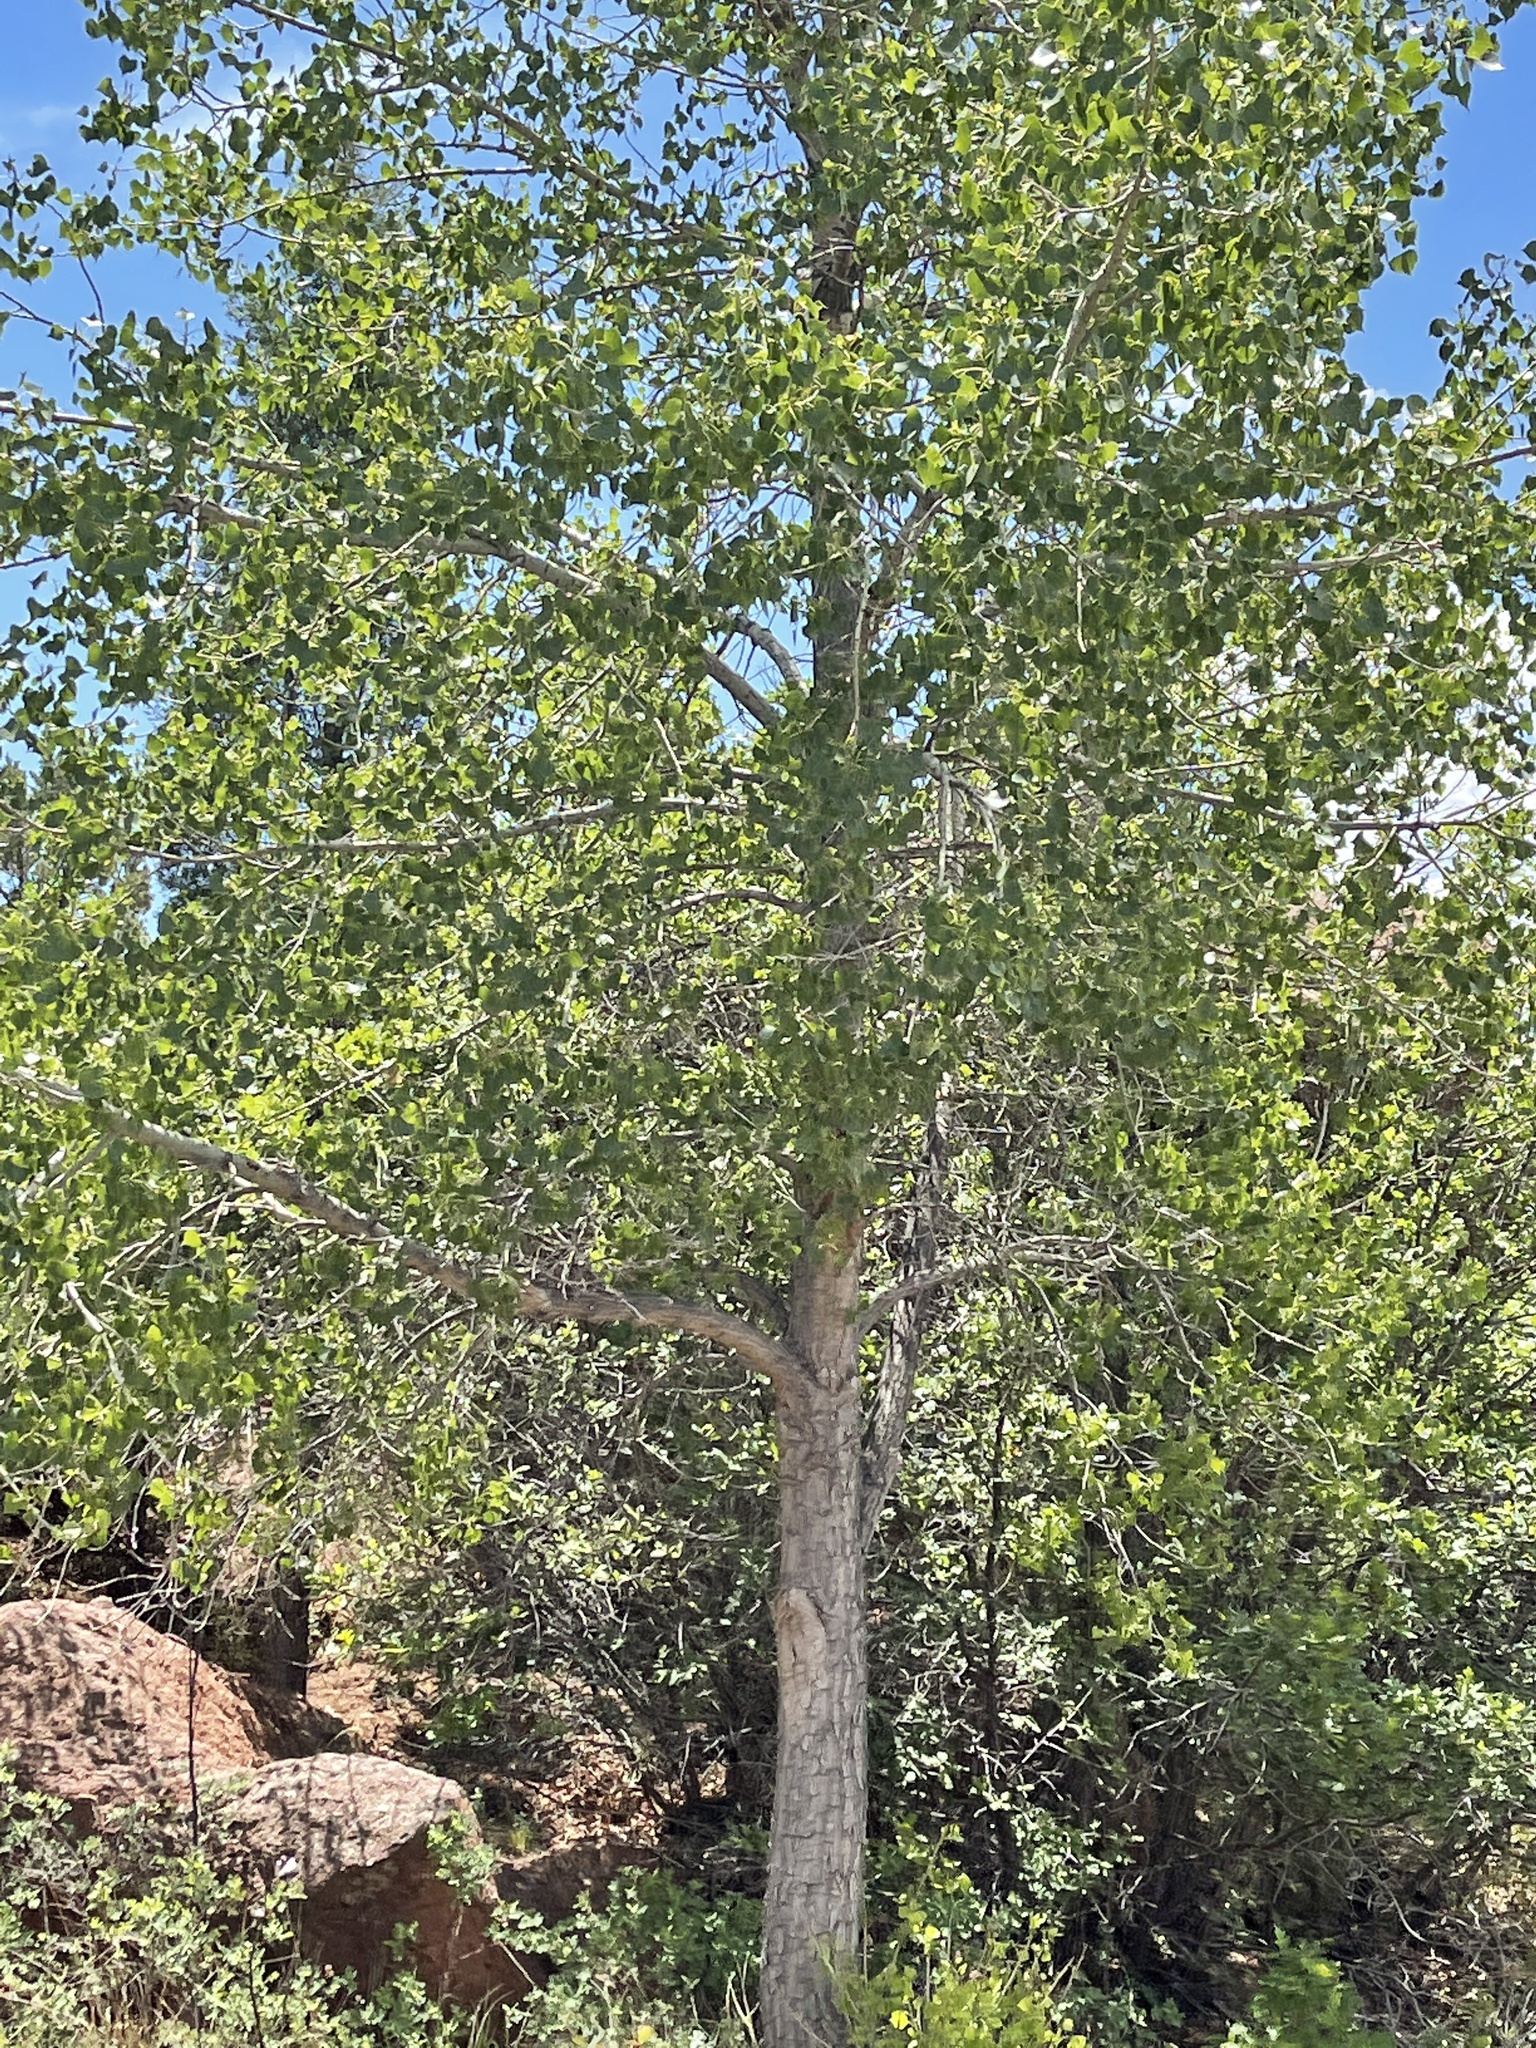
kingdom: Plantae
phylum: Tracheophyta
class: Magnoliopsida
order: Malpighiales
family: Salicaceae
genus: Populus
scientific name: Populus deltoides
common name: Eastern cottonwood
